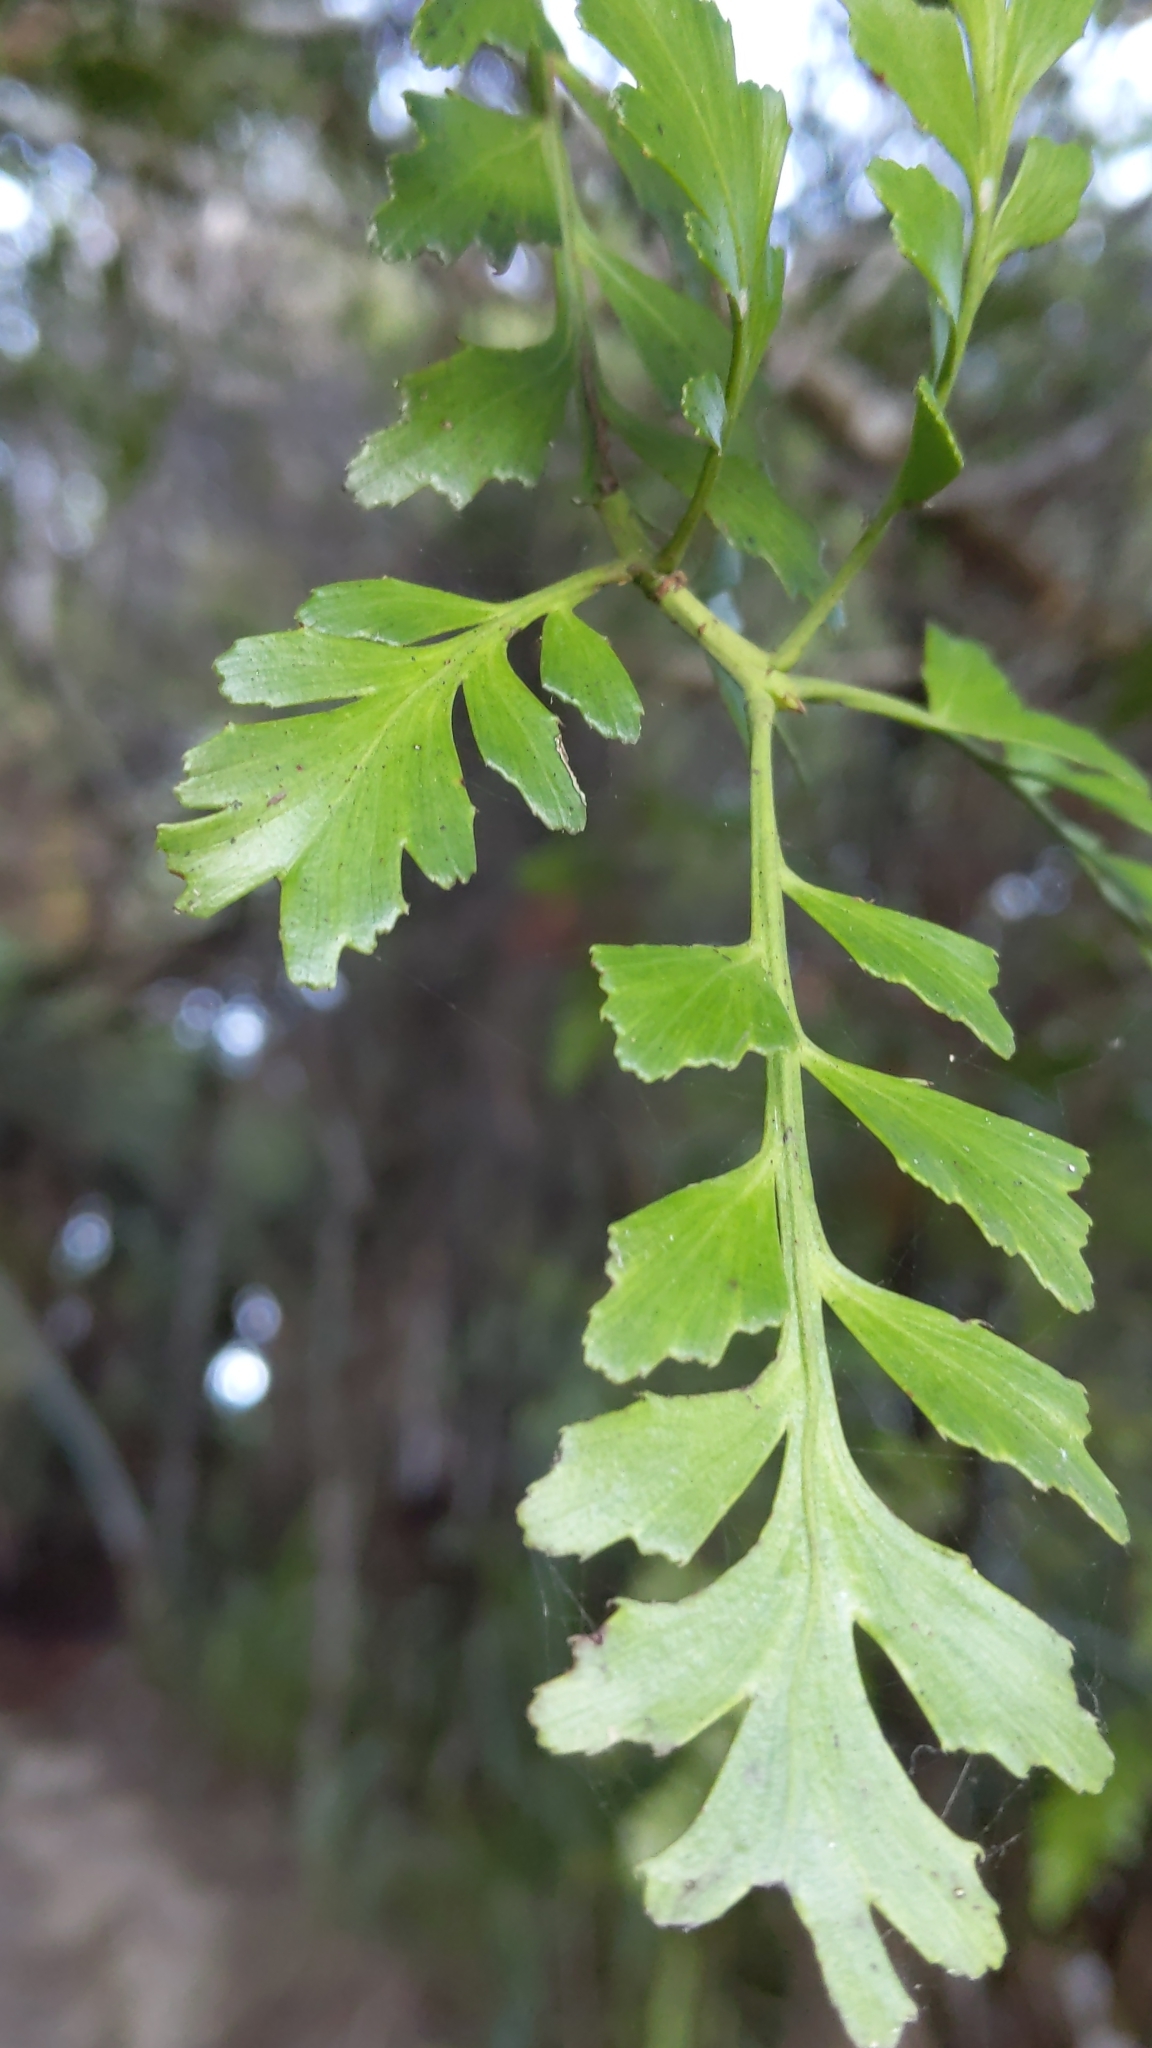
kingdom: Plantae
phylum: Tracheophyta
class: Pinopsida
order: Pinales
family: Phyllocladaceae
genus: Phyllocladus
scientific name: Phyllocladus trichomanoides
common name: Celery pine
